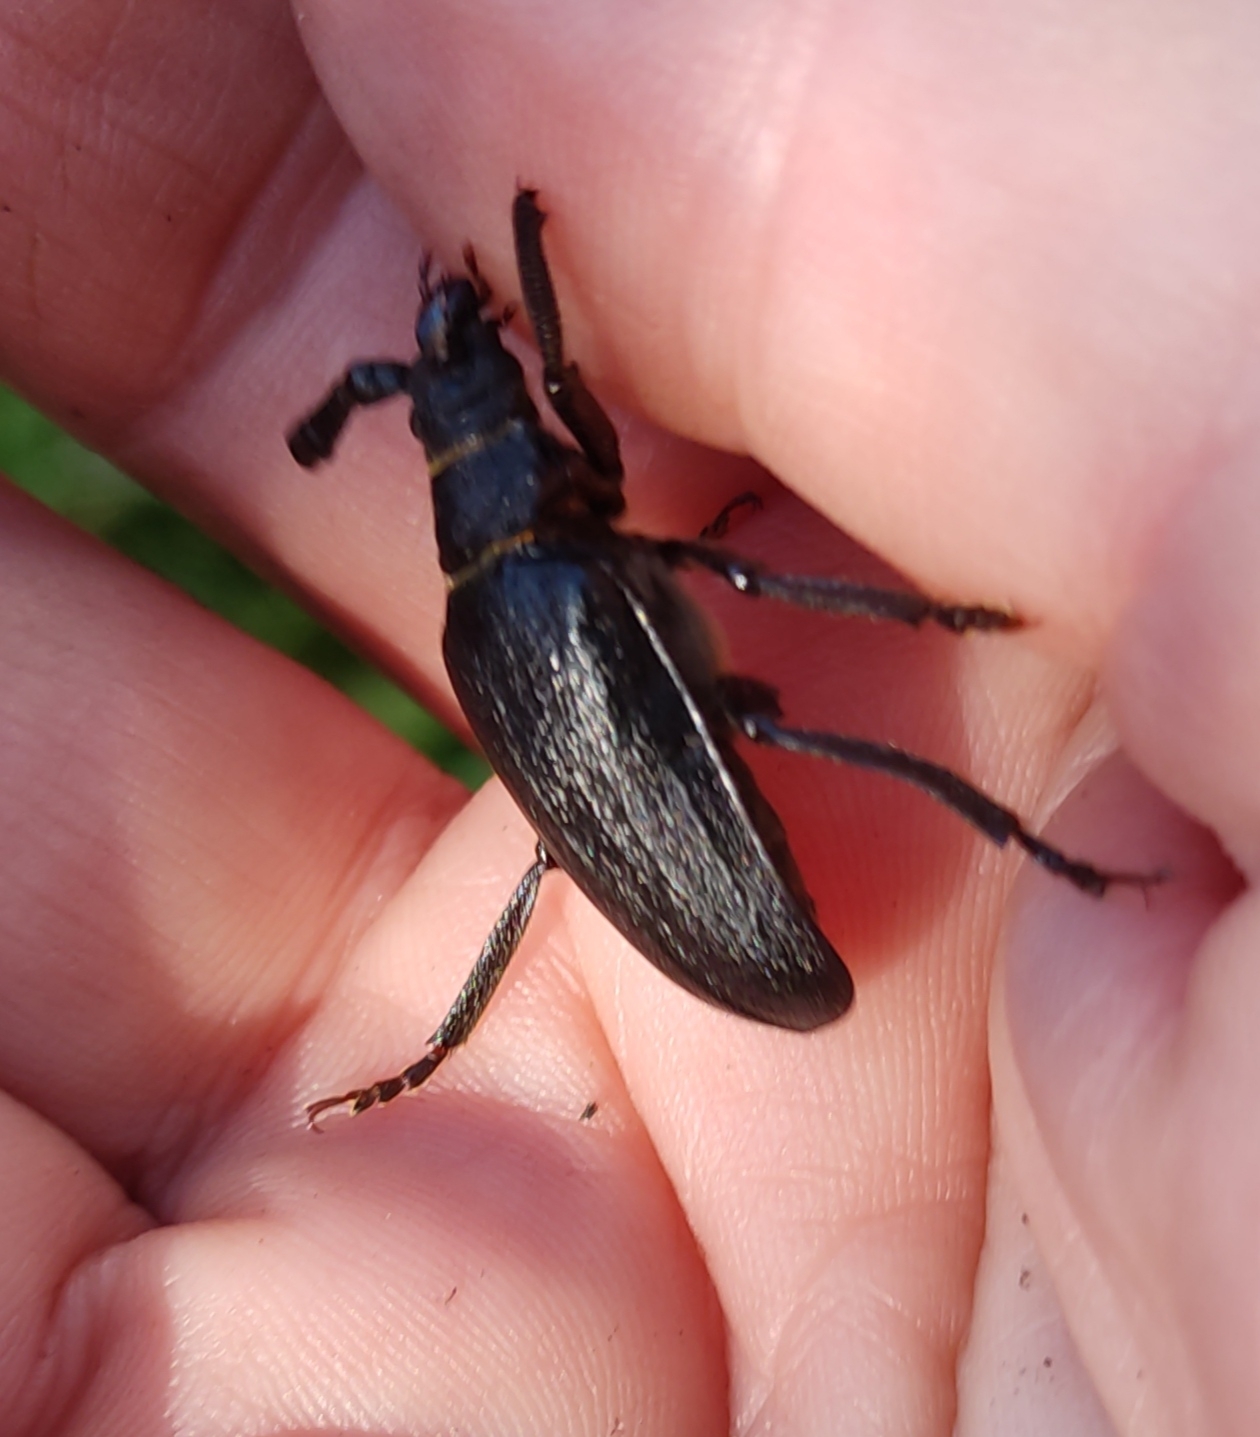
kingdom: Animalia
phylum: Arthropoda
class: Insecta
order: Coleoptera
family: Cerambycidae
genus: Prionus
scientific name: Prionus coriarius
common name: Tanner beetle
